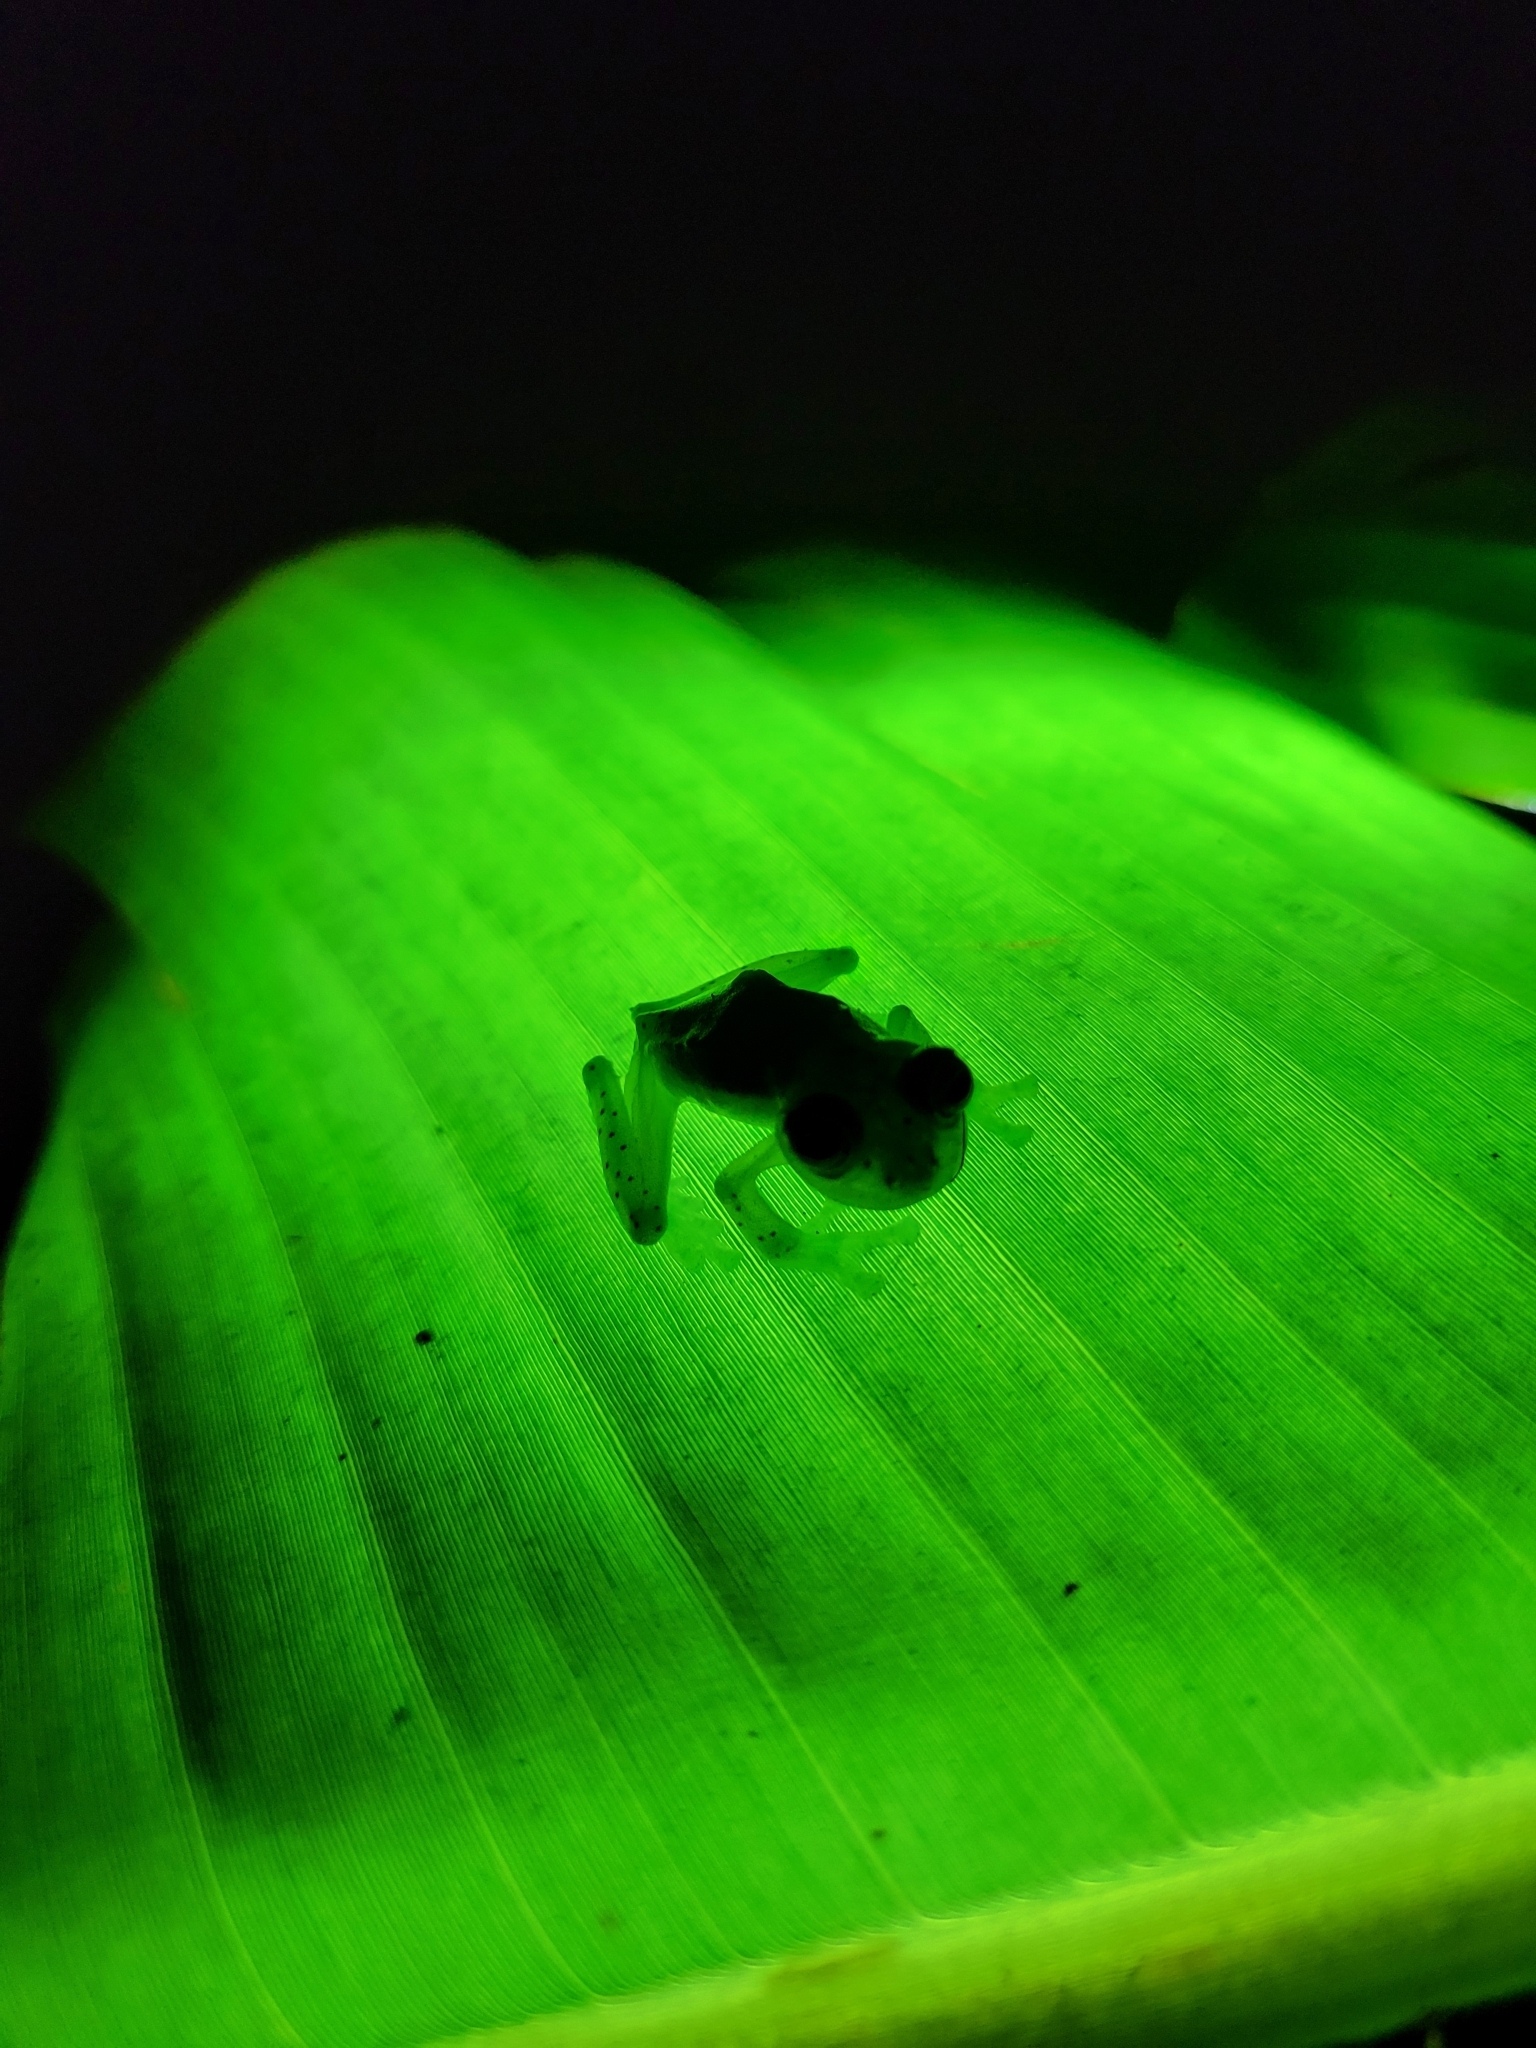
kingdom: Animalia
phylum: Chordata
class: Amphibia
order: Anura
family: Centrolenidae
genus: Espadarana
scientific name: Espadarana prosoblepon
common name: Rana de cristal variable
